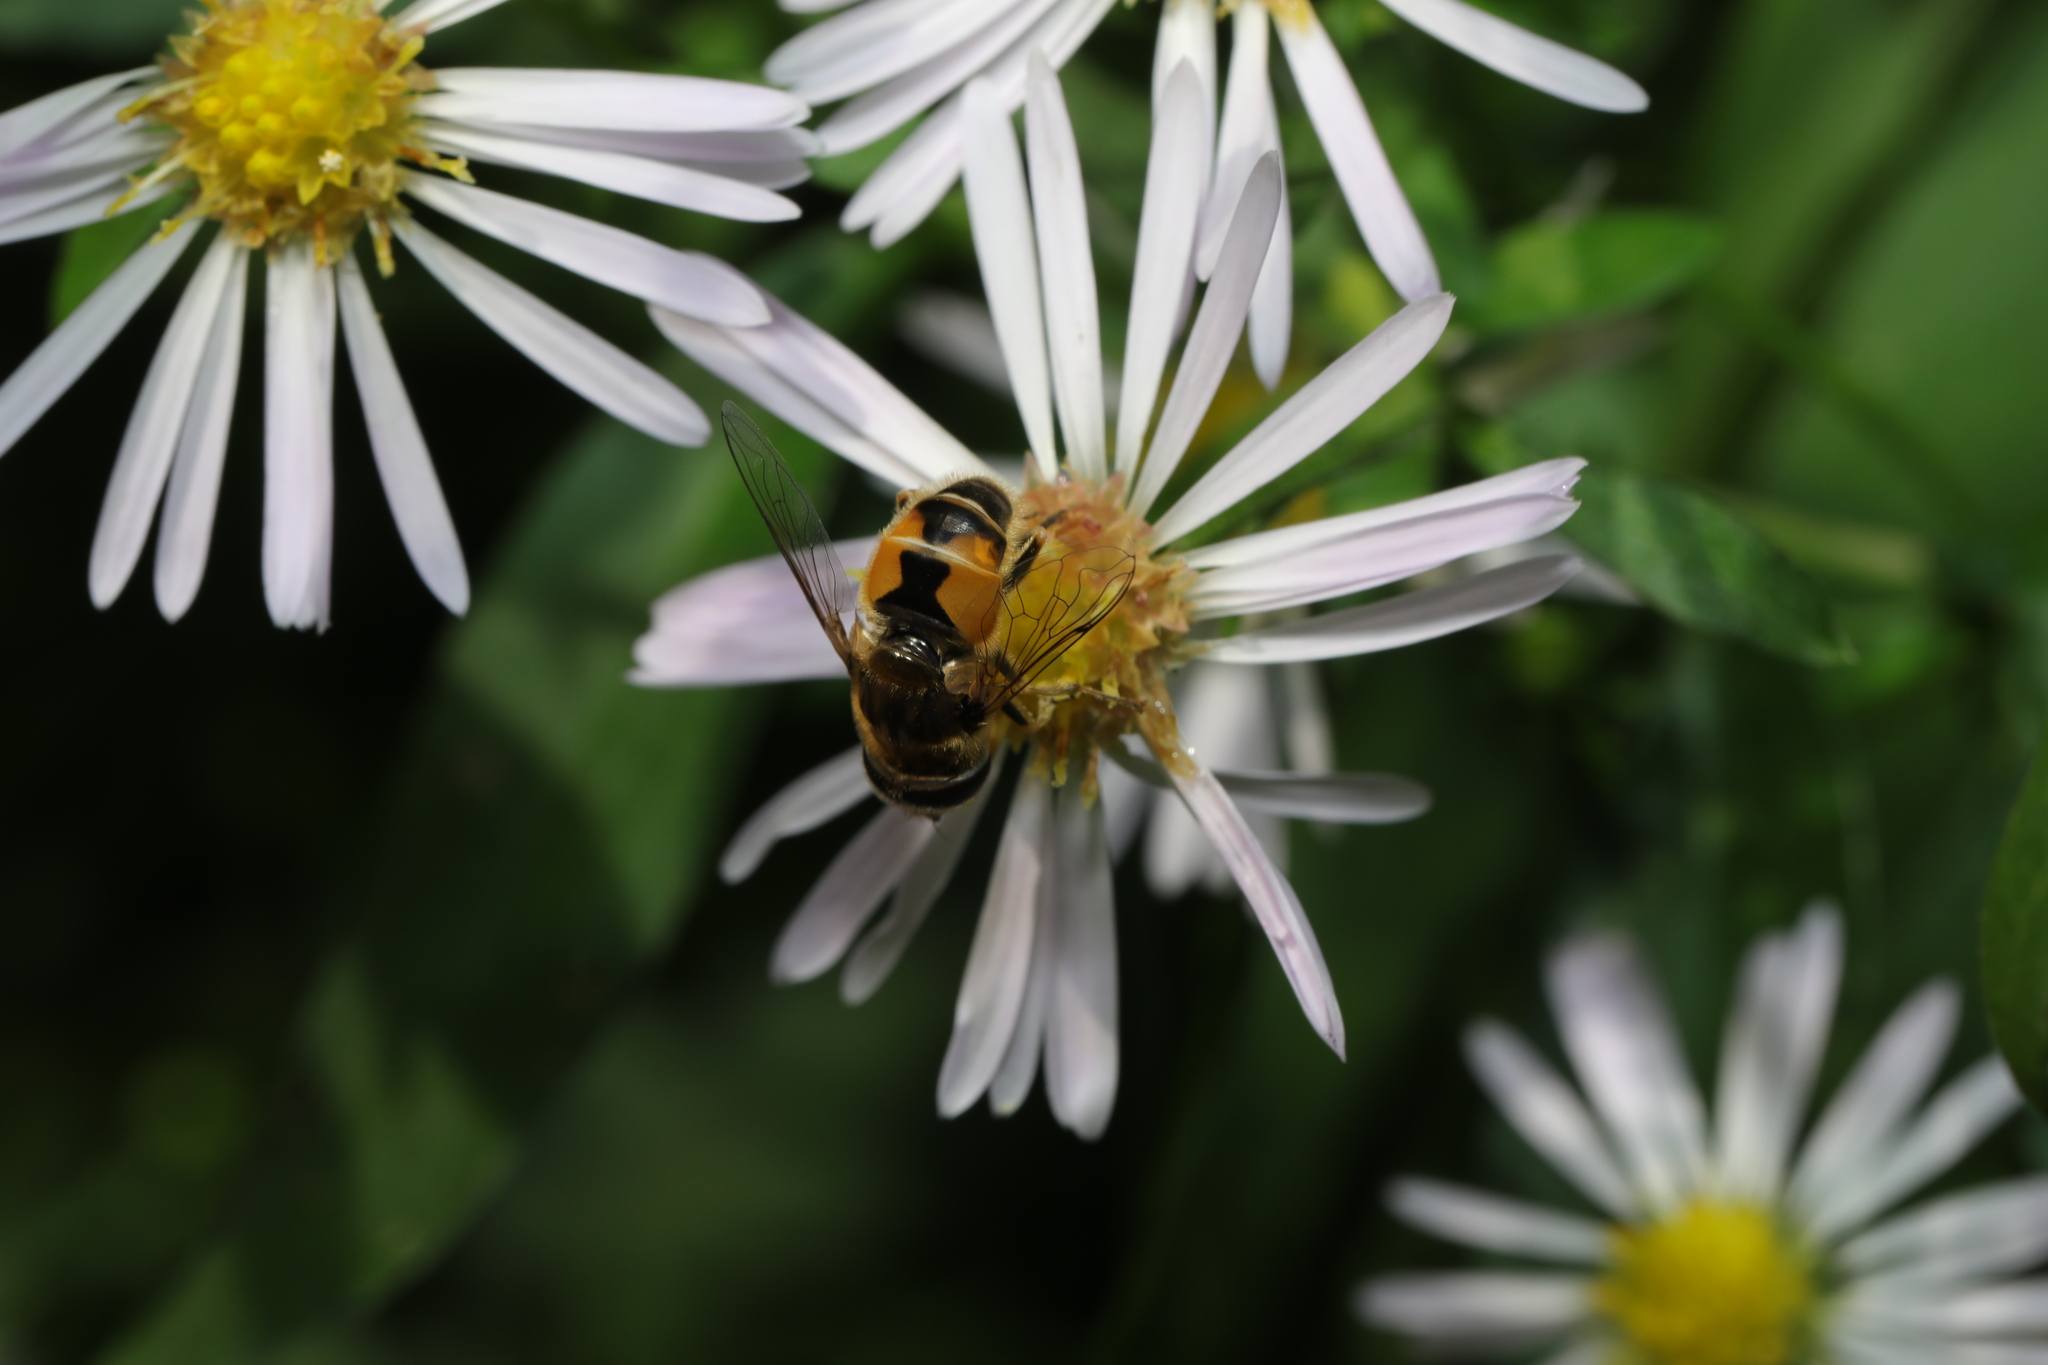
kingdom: Animalia
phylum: Arthropoda
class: Insecta
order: Diptera
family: Syrphidae
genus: Eristalis
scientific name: Eristalis arbustorum
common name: Hover fly
